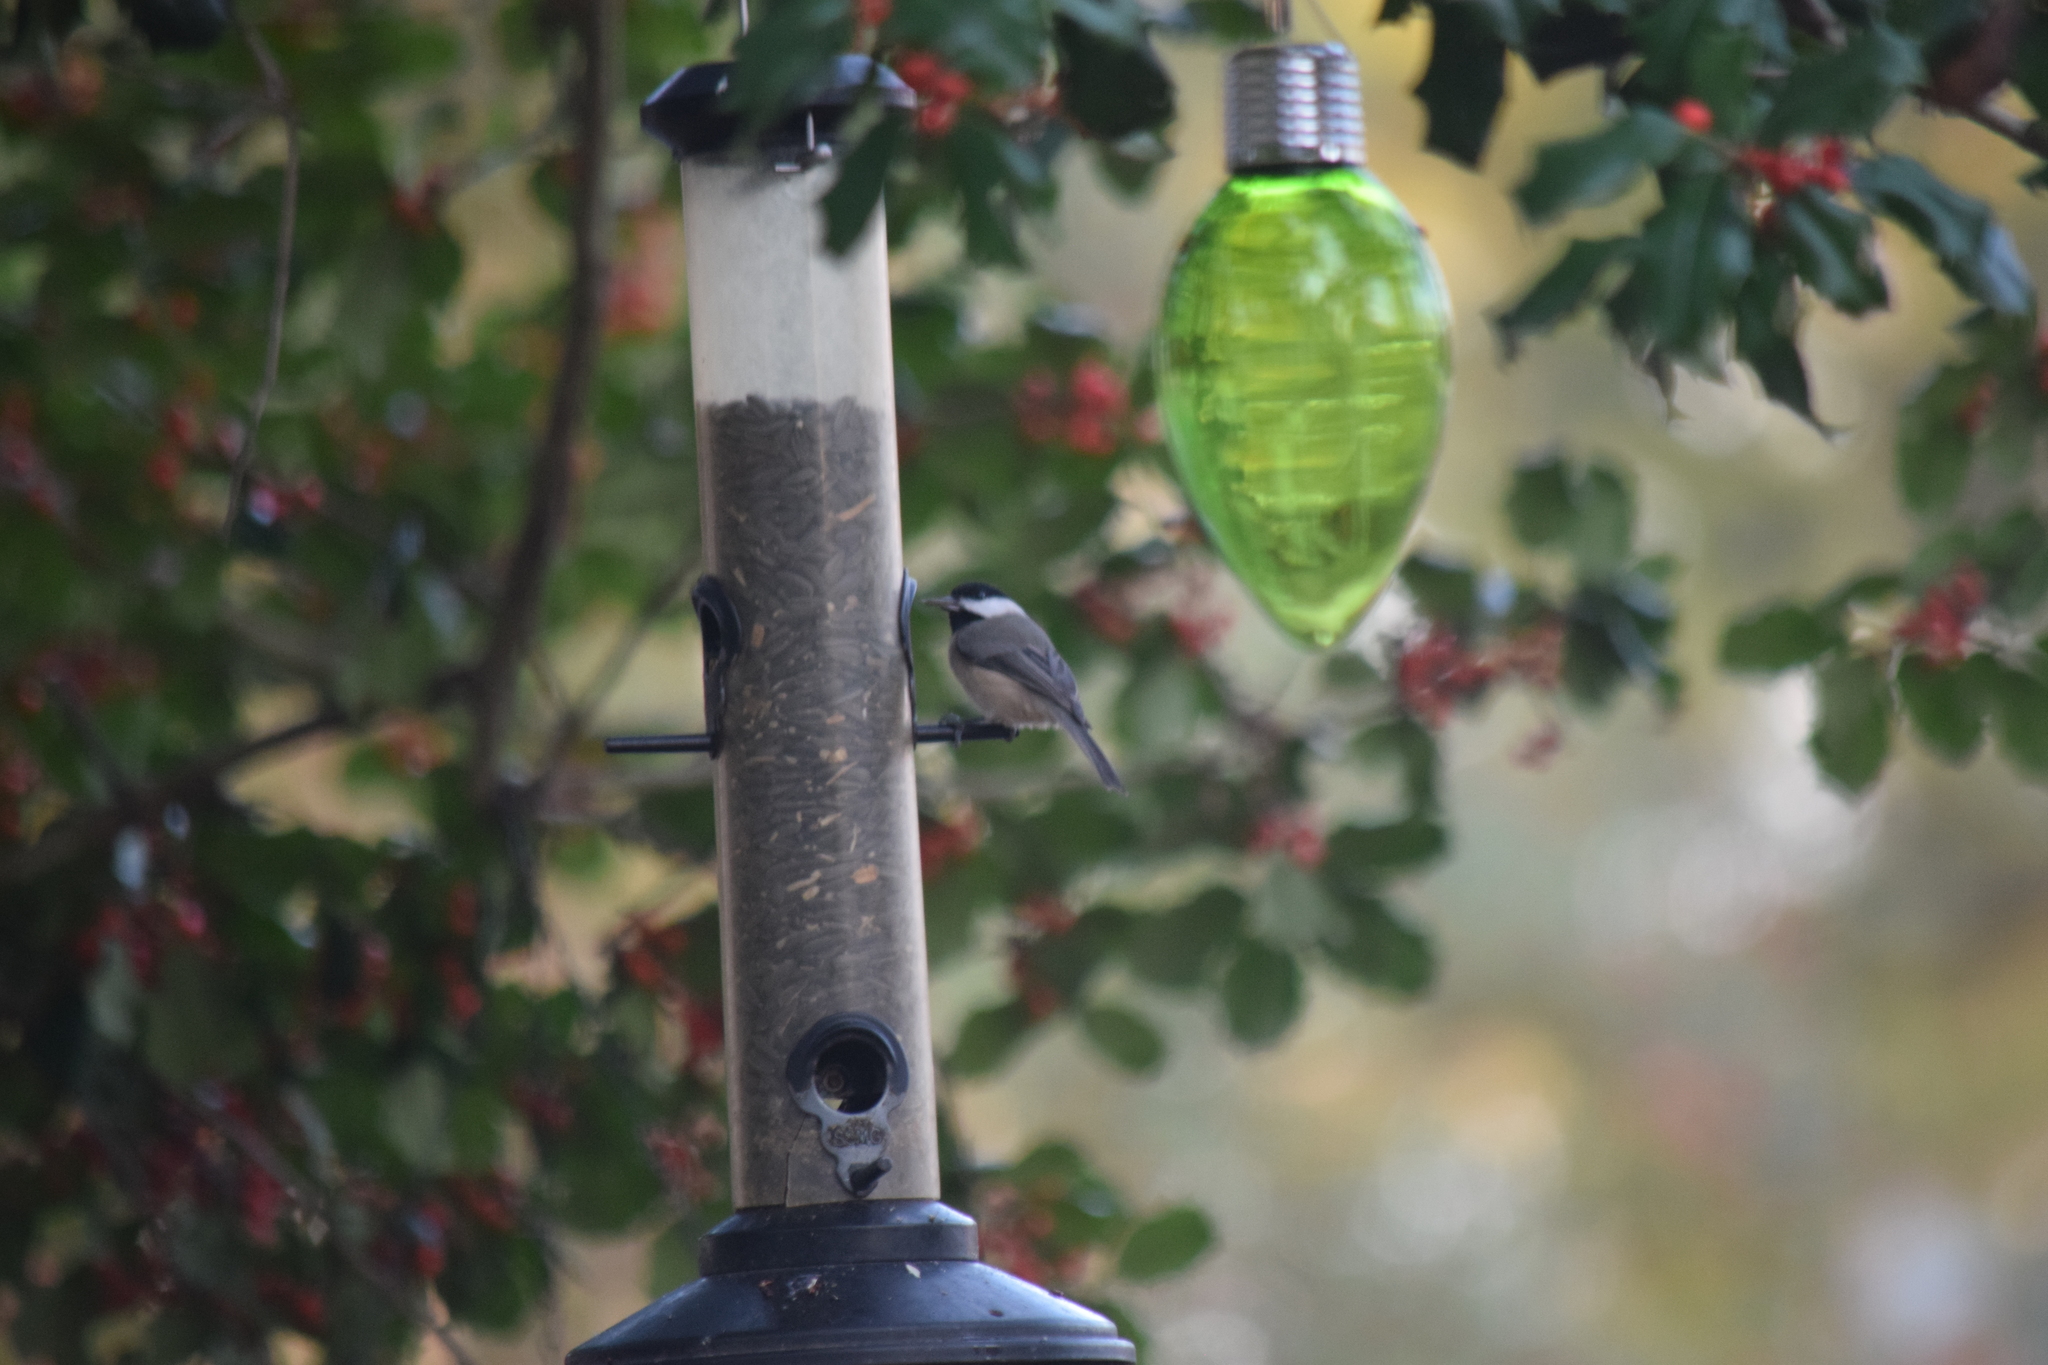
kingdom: Animalia
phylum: Chordata
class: Aves
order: Passeriformes
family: Paridae
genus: Poecile
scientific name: Poecile carolinensis
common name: Carolina chickadee
